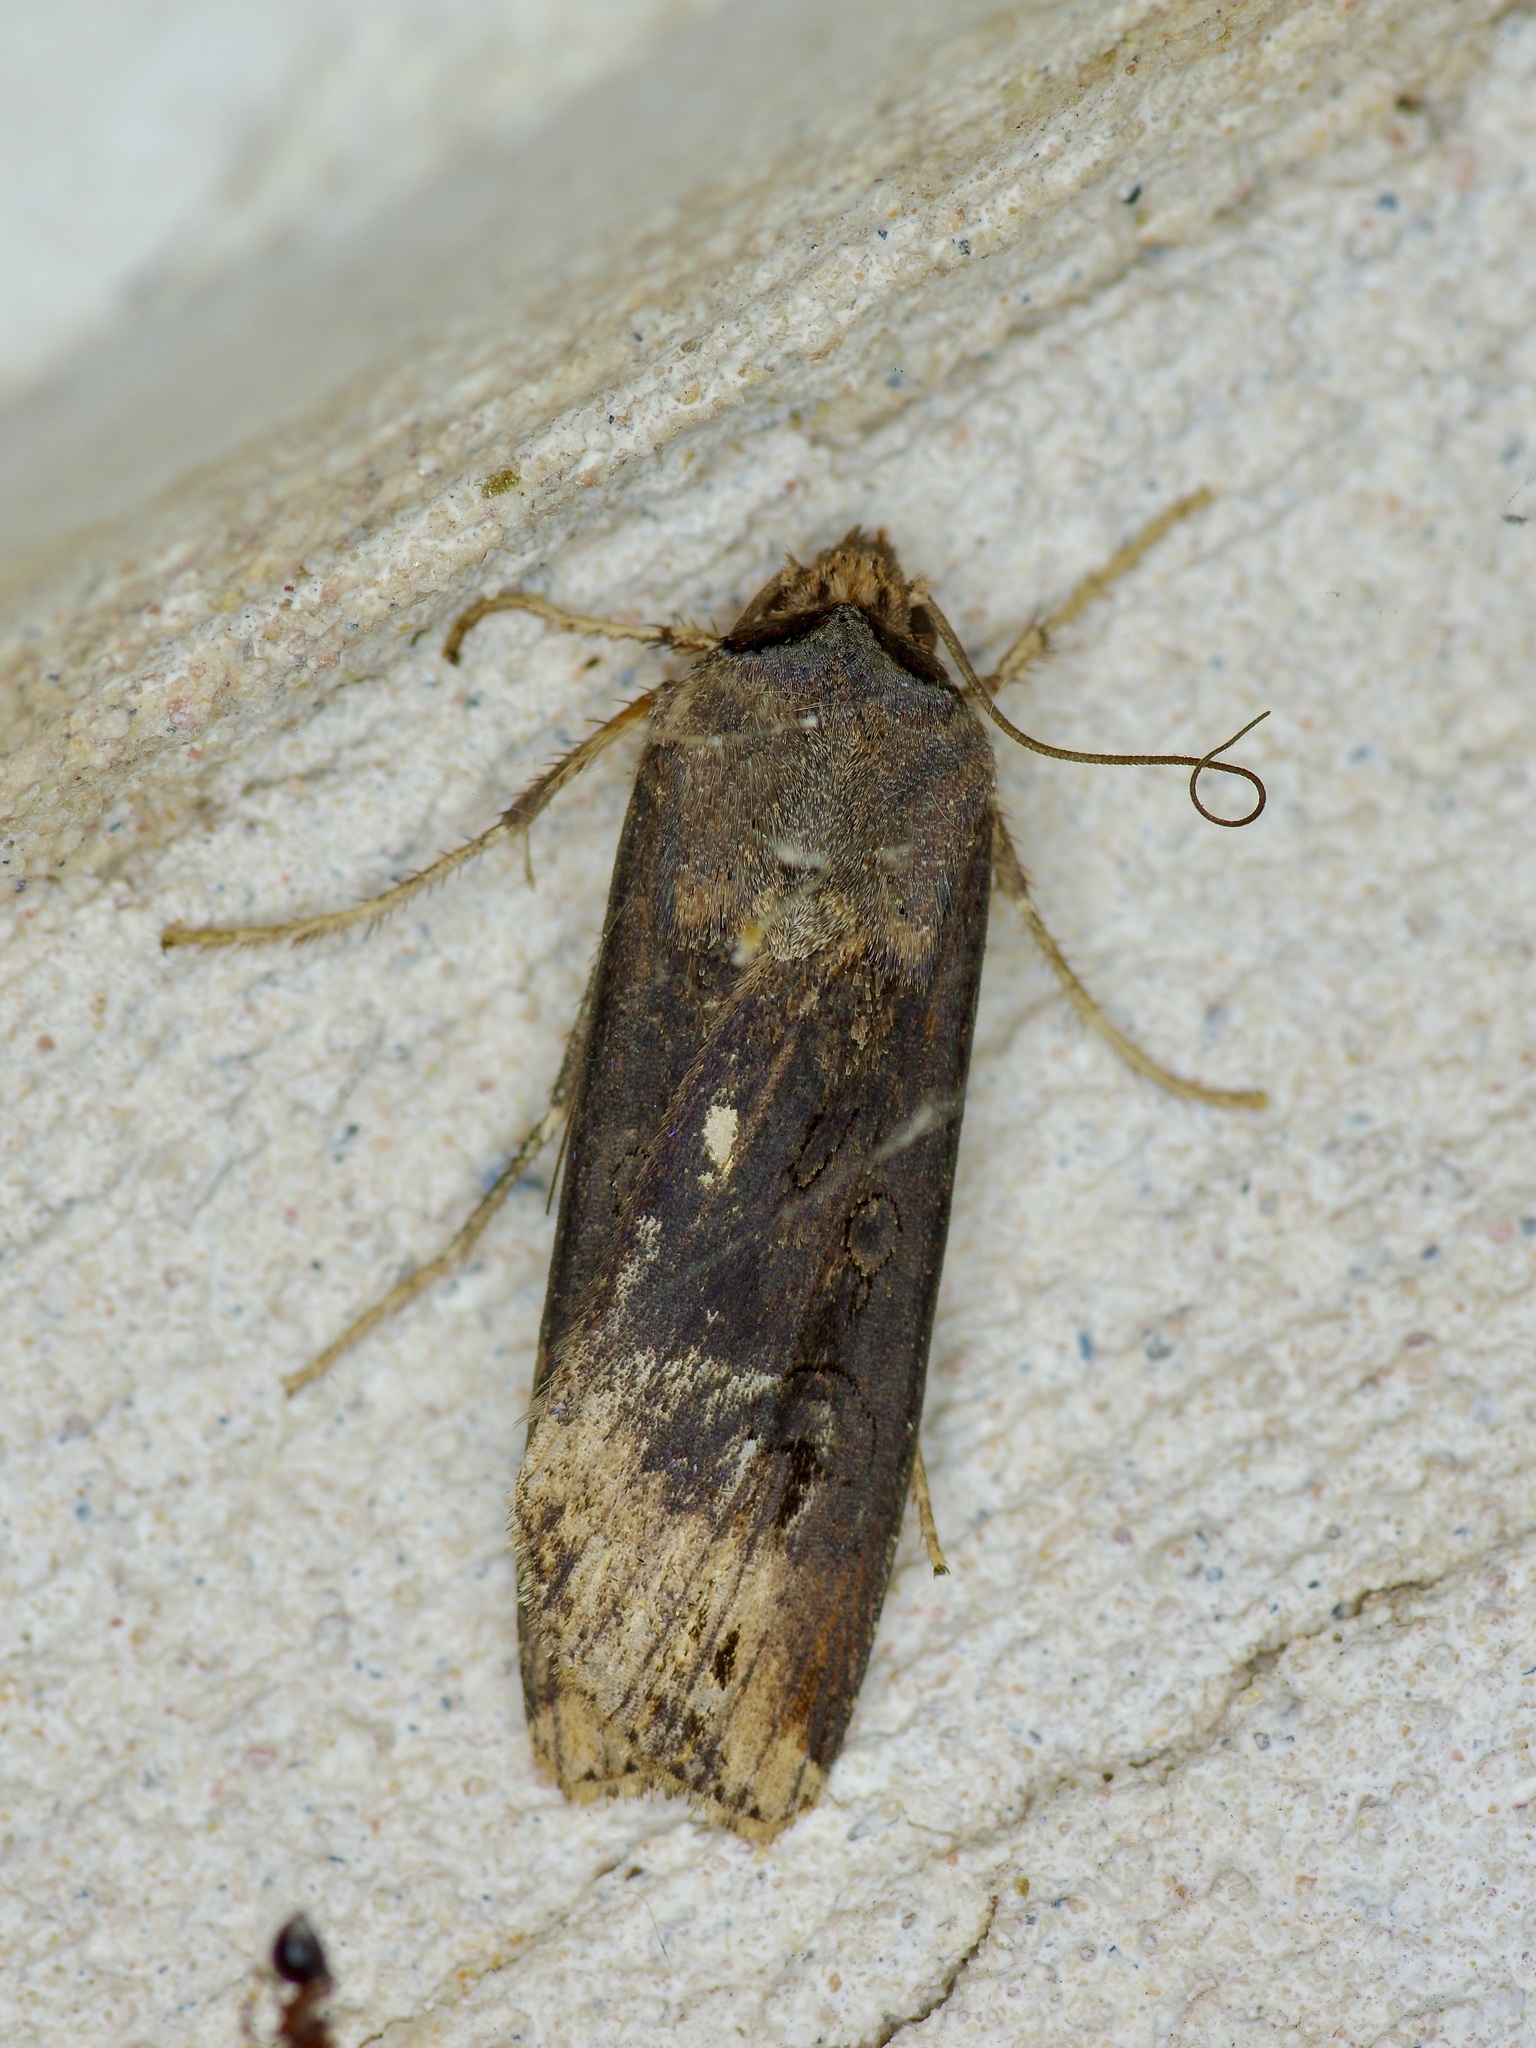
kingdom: Animalia
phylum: Arthropoda
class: Insecta
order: Lepidoptera
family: Noctuidae
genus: Agrotis
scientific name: Agrotis ipsilon
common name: Dark sword-grass
